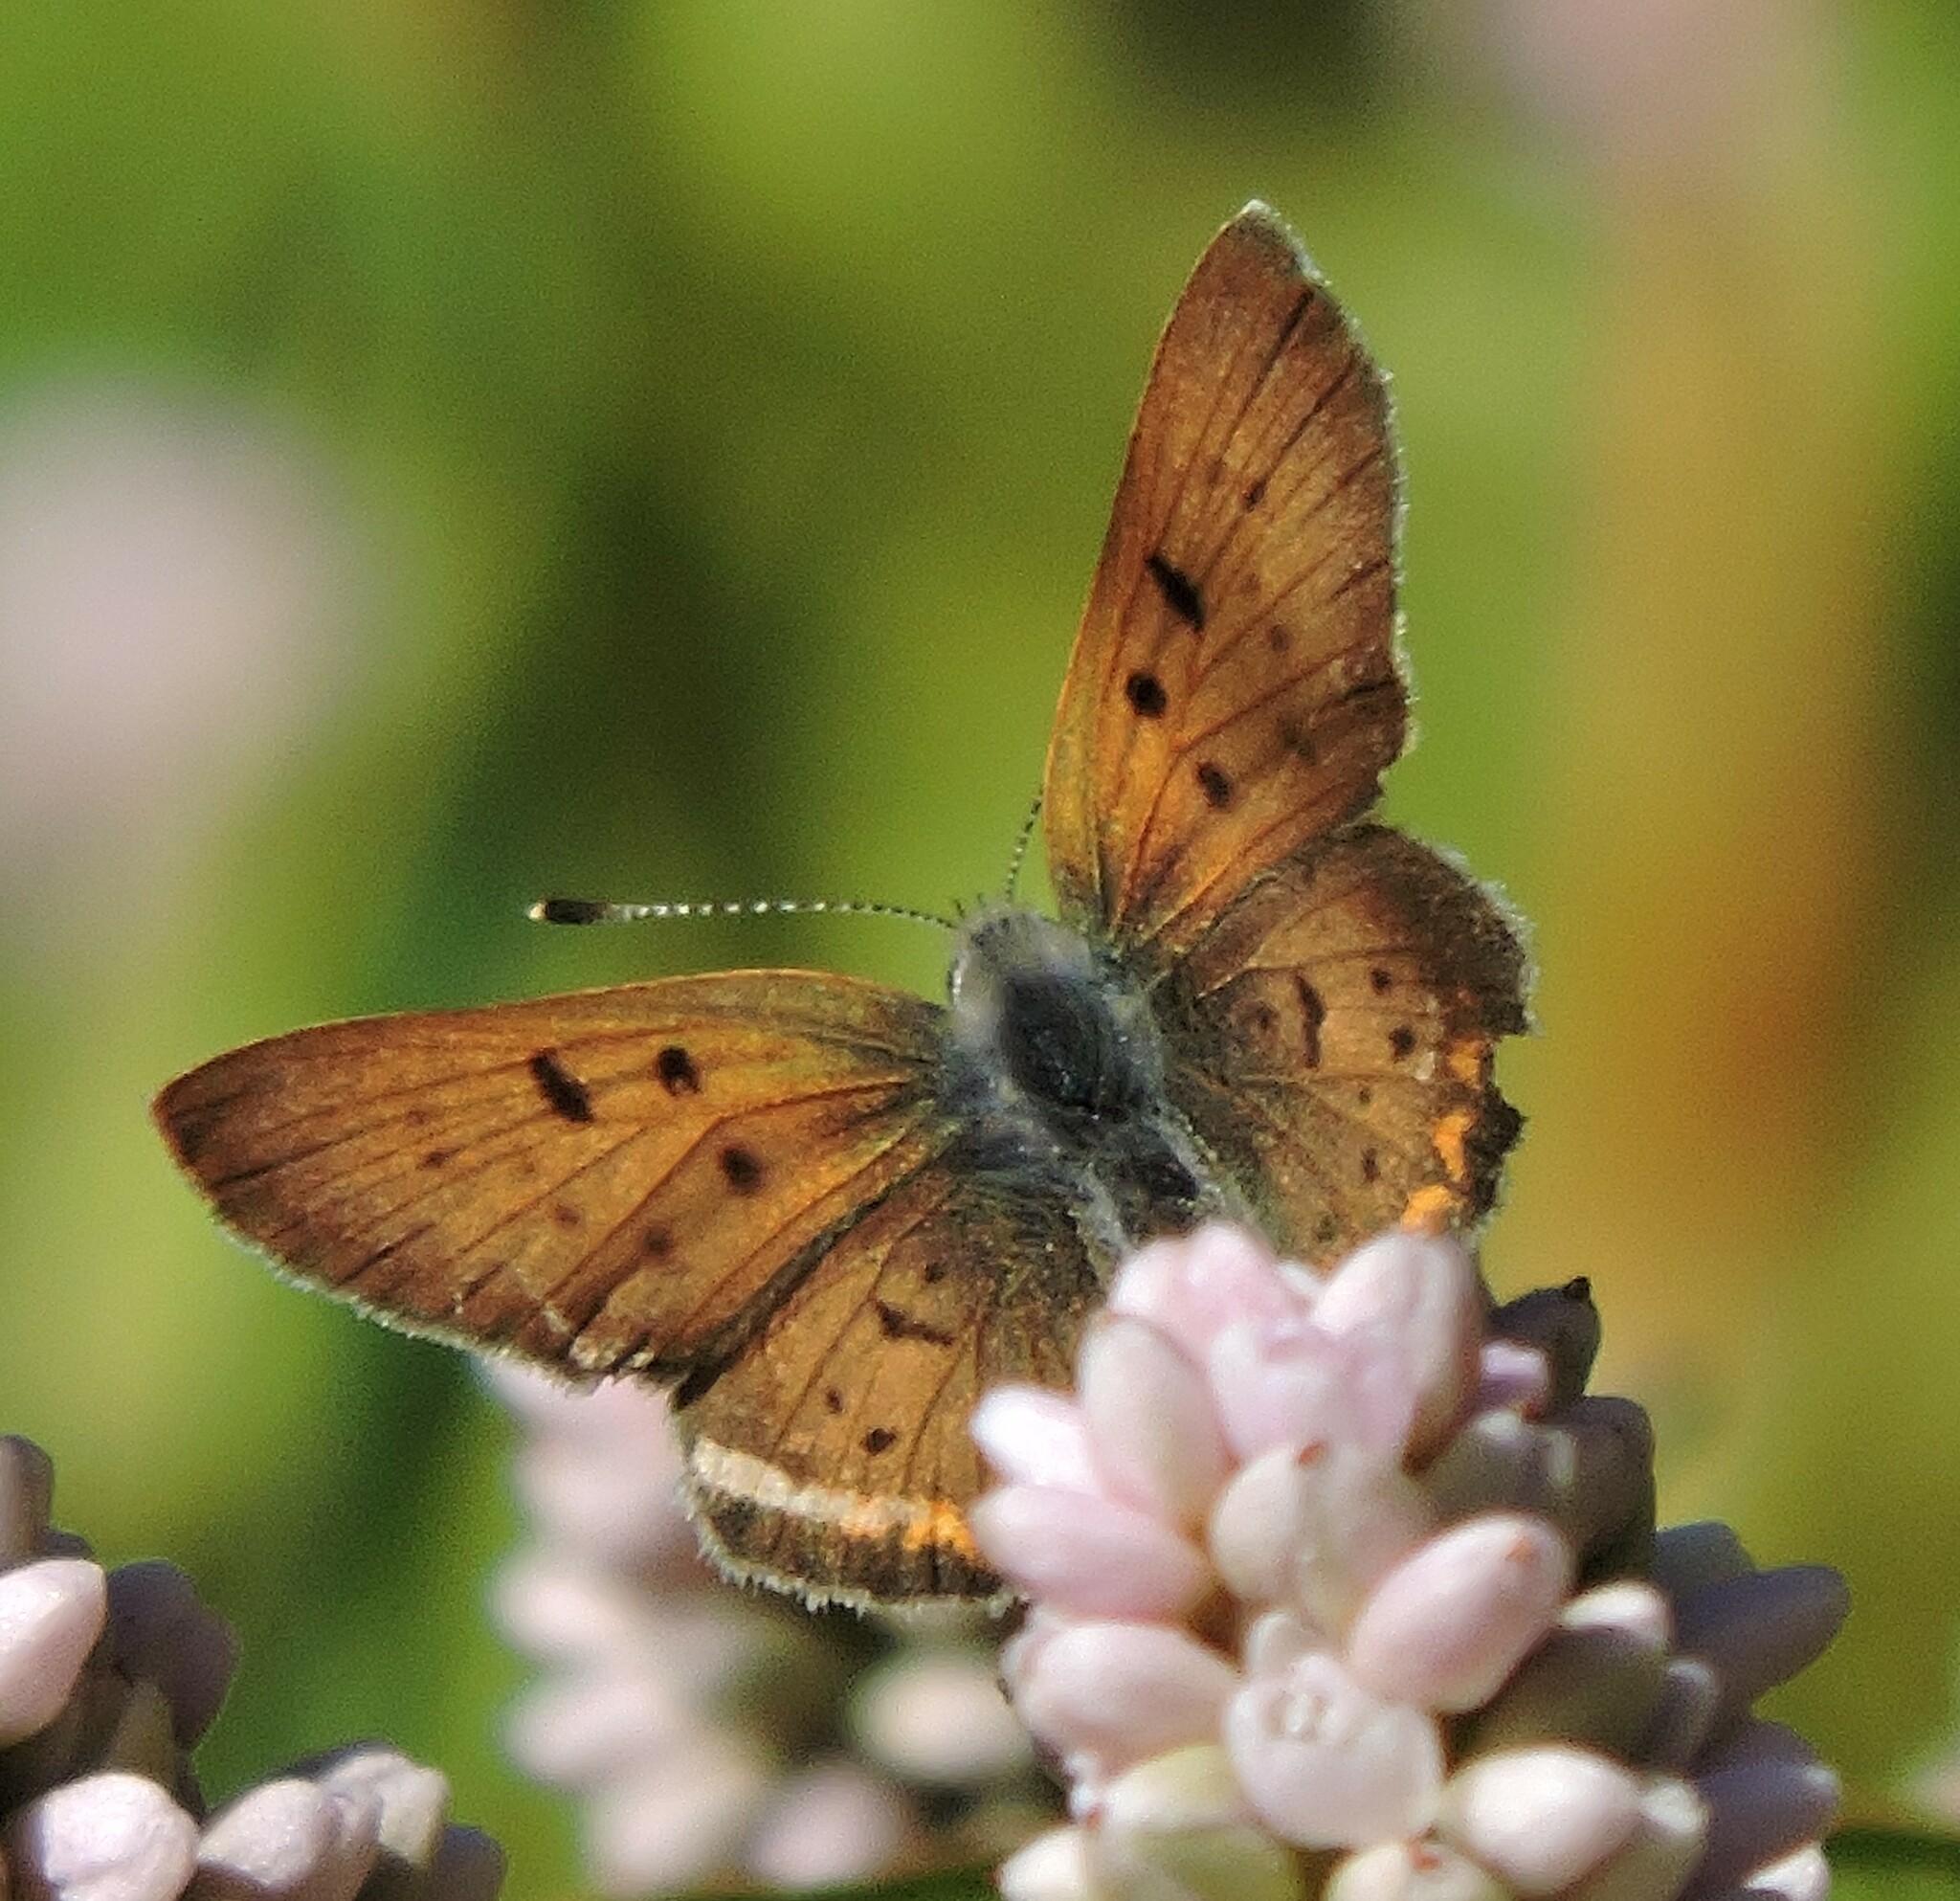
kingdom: Animalia
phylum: Arthropoda
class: Insecta
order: Lepidoptera
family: Lycaenidae
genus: Tharsalea
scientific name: Tharsalea helloides
